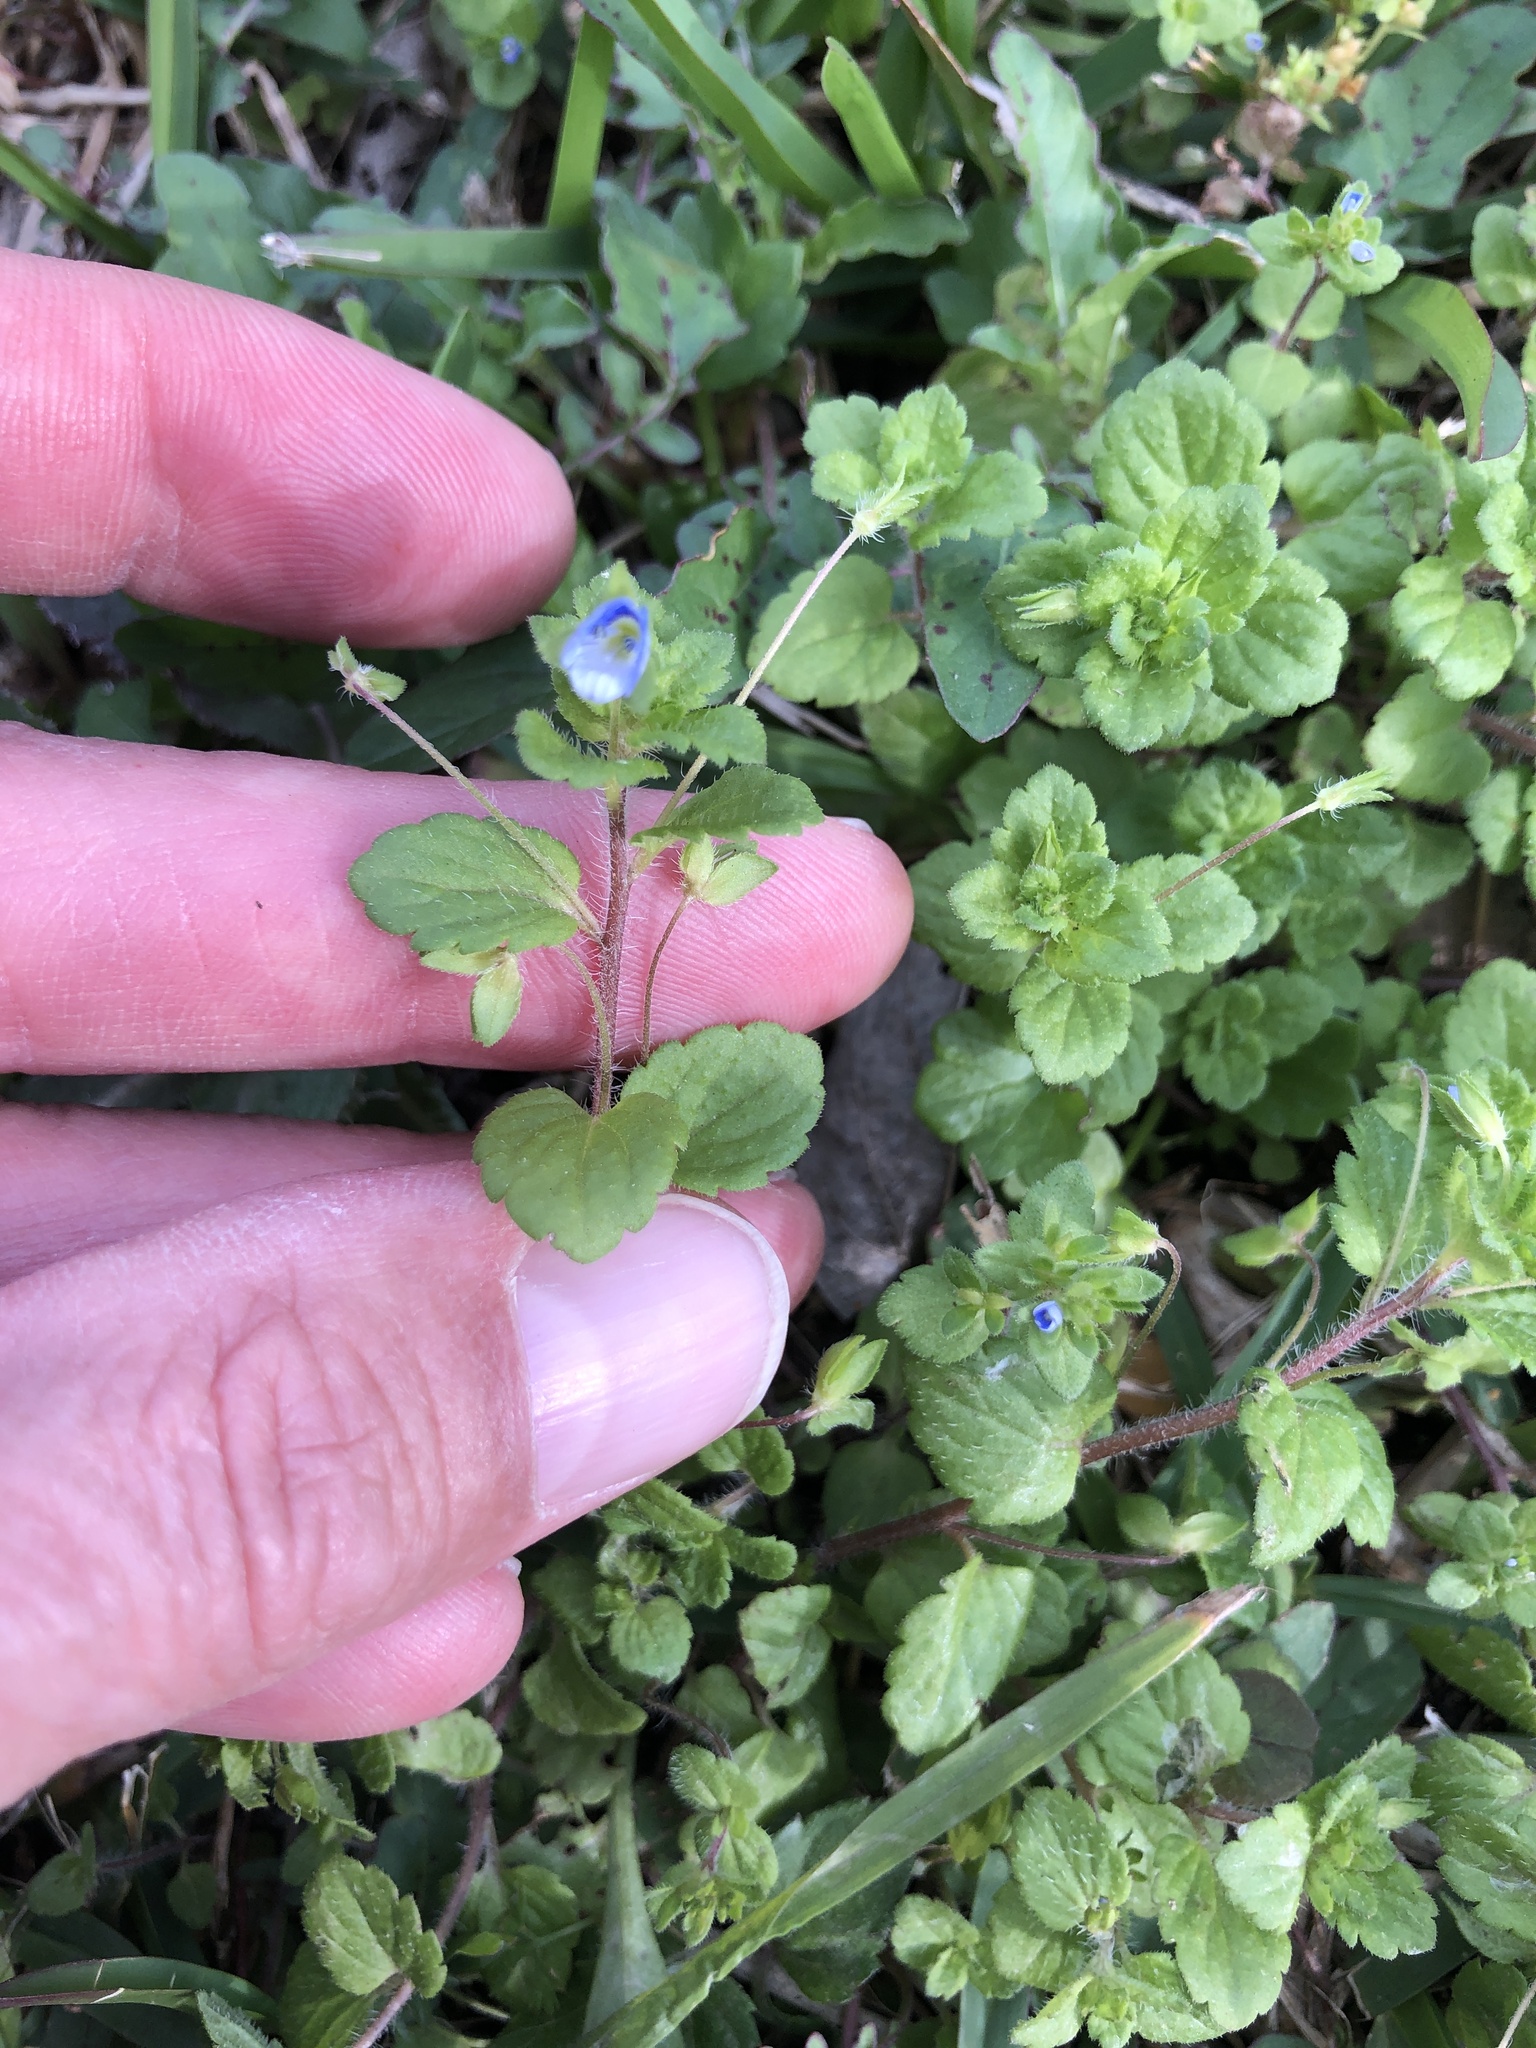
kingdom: Plantae
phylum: Tracheophyta
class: Magnoliopsida
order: Lamiales
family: Plantaginaceae
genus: Veronica
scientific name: Veronica persica
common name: Common field-speedwell
